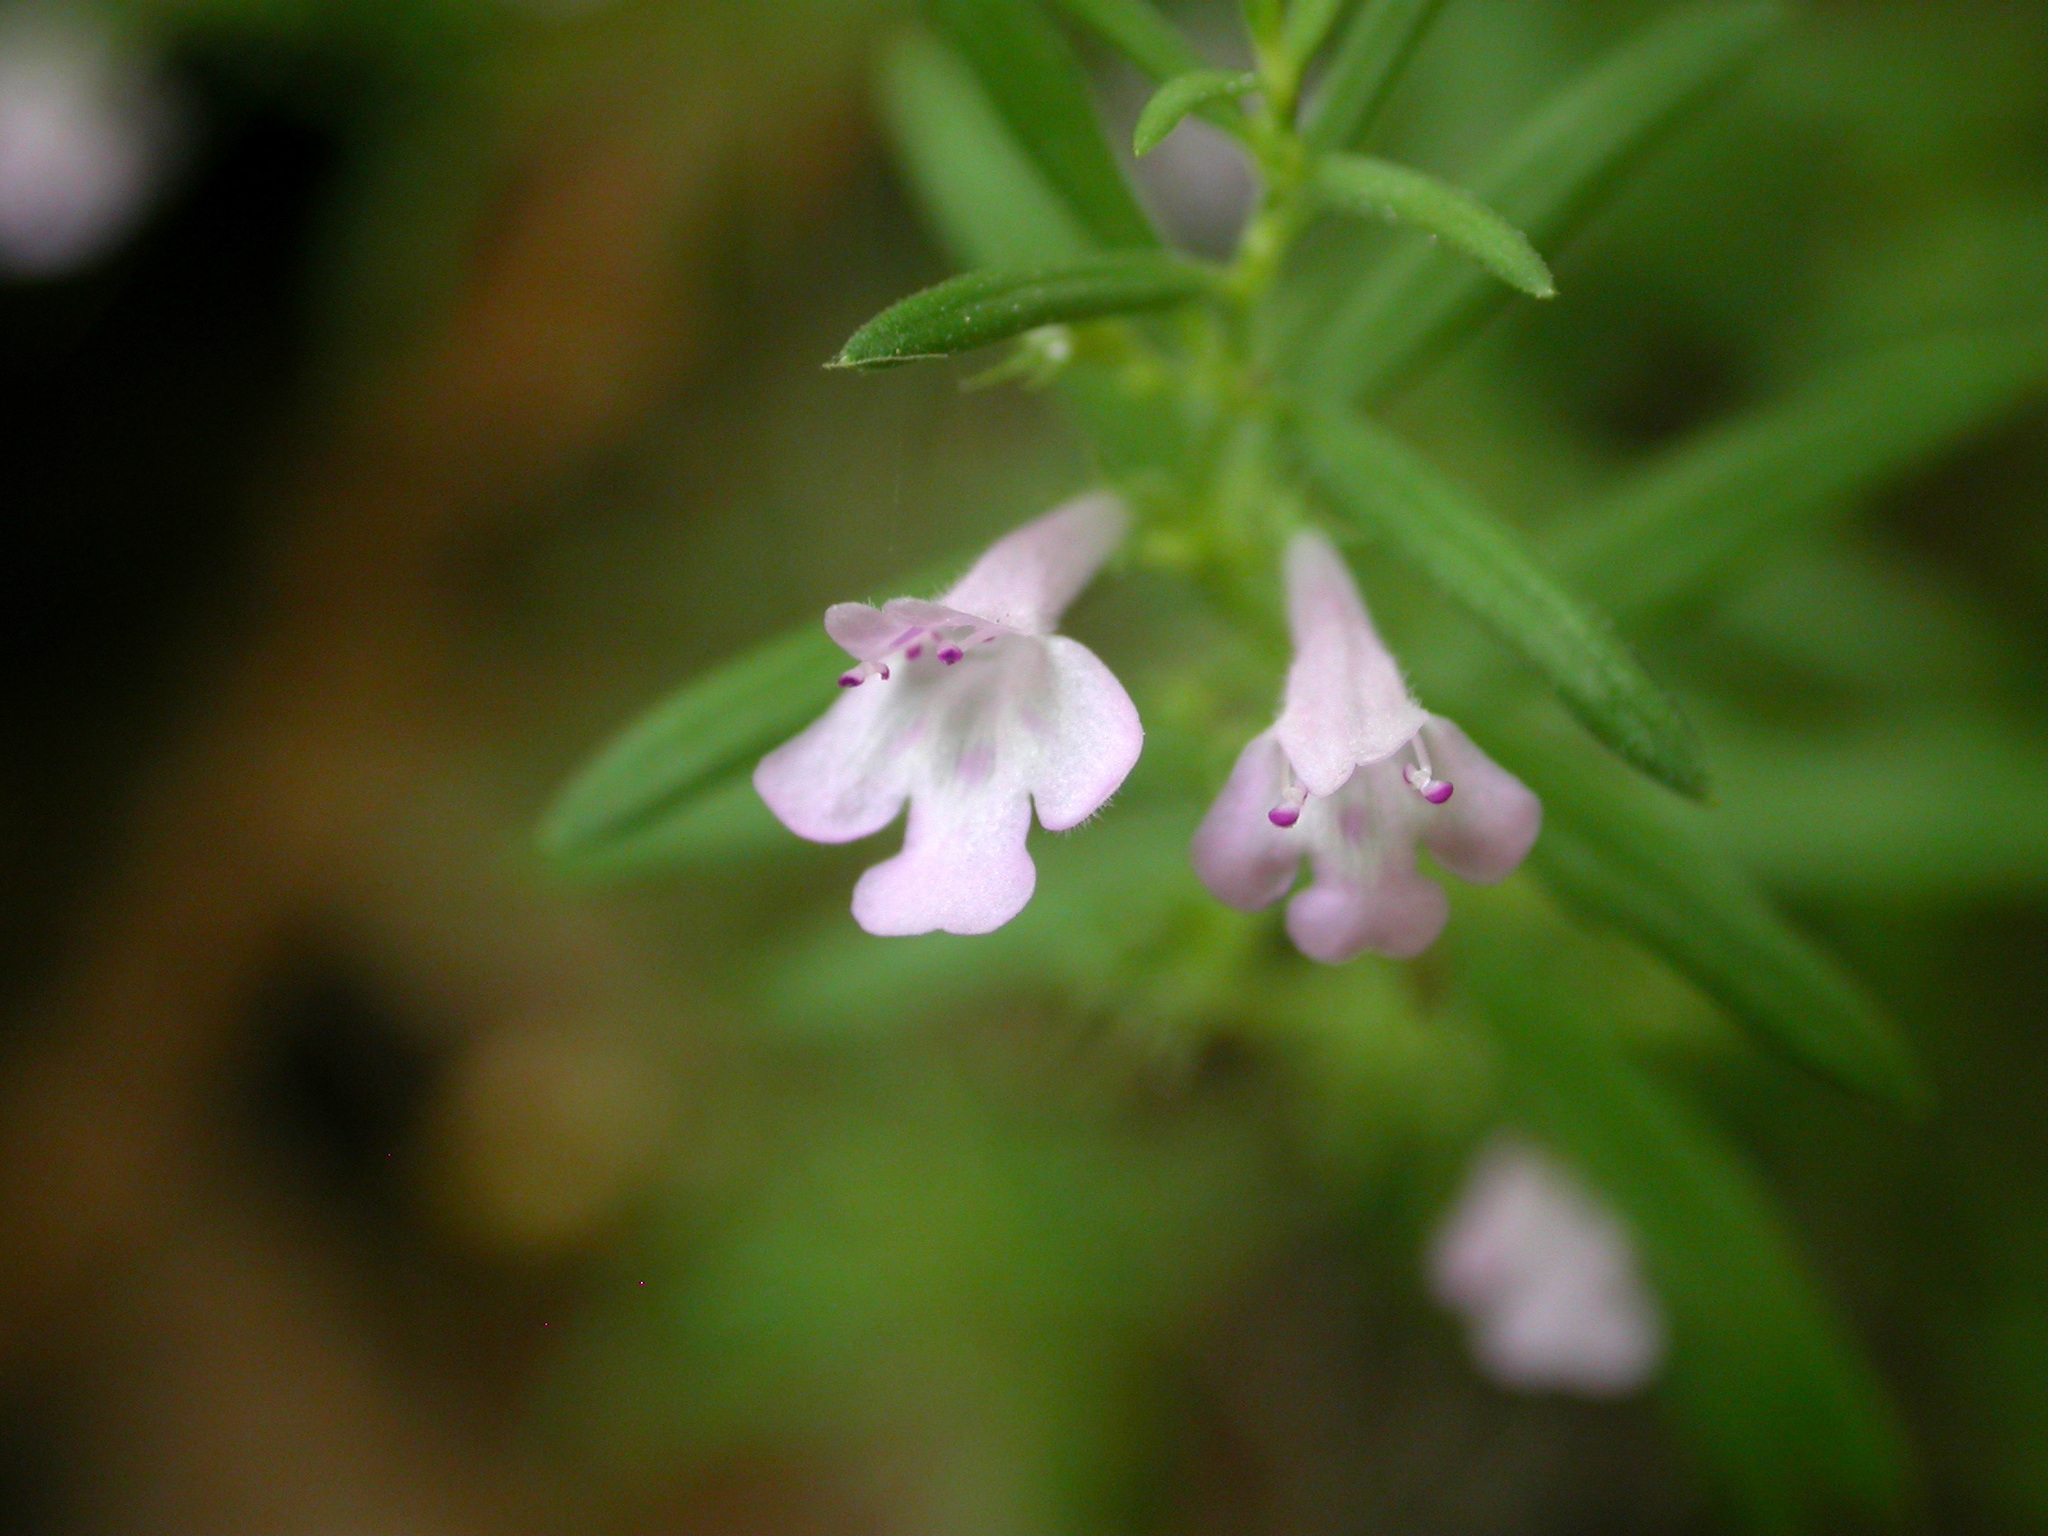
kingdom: Plantae
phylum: Tracheophyta
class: Magnoliopsida
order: Lamiales
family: Lamiaceae
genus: Micromeria
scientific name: Micromeria graeca
